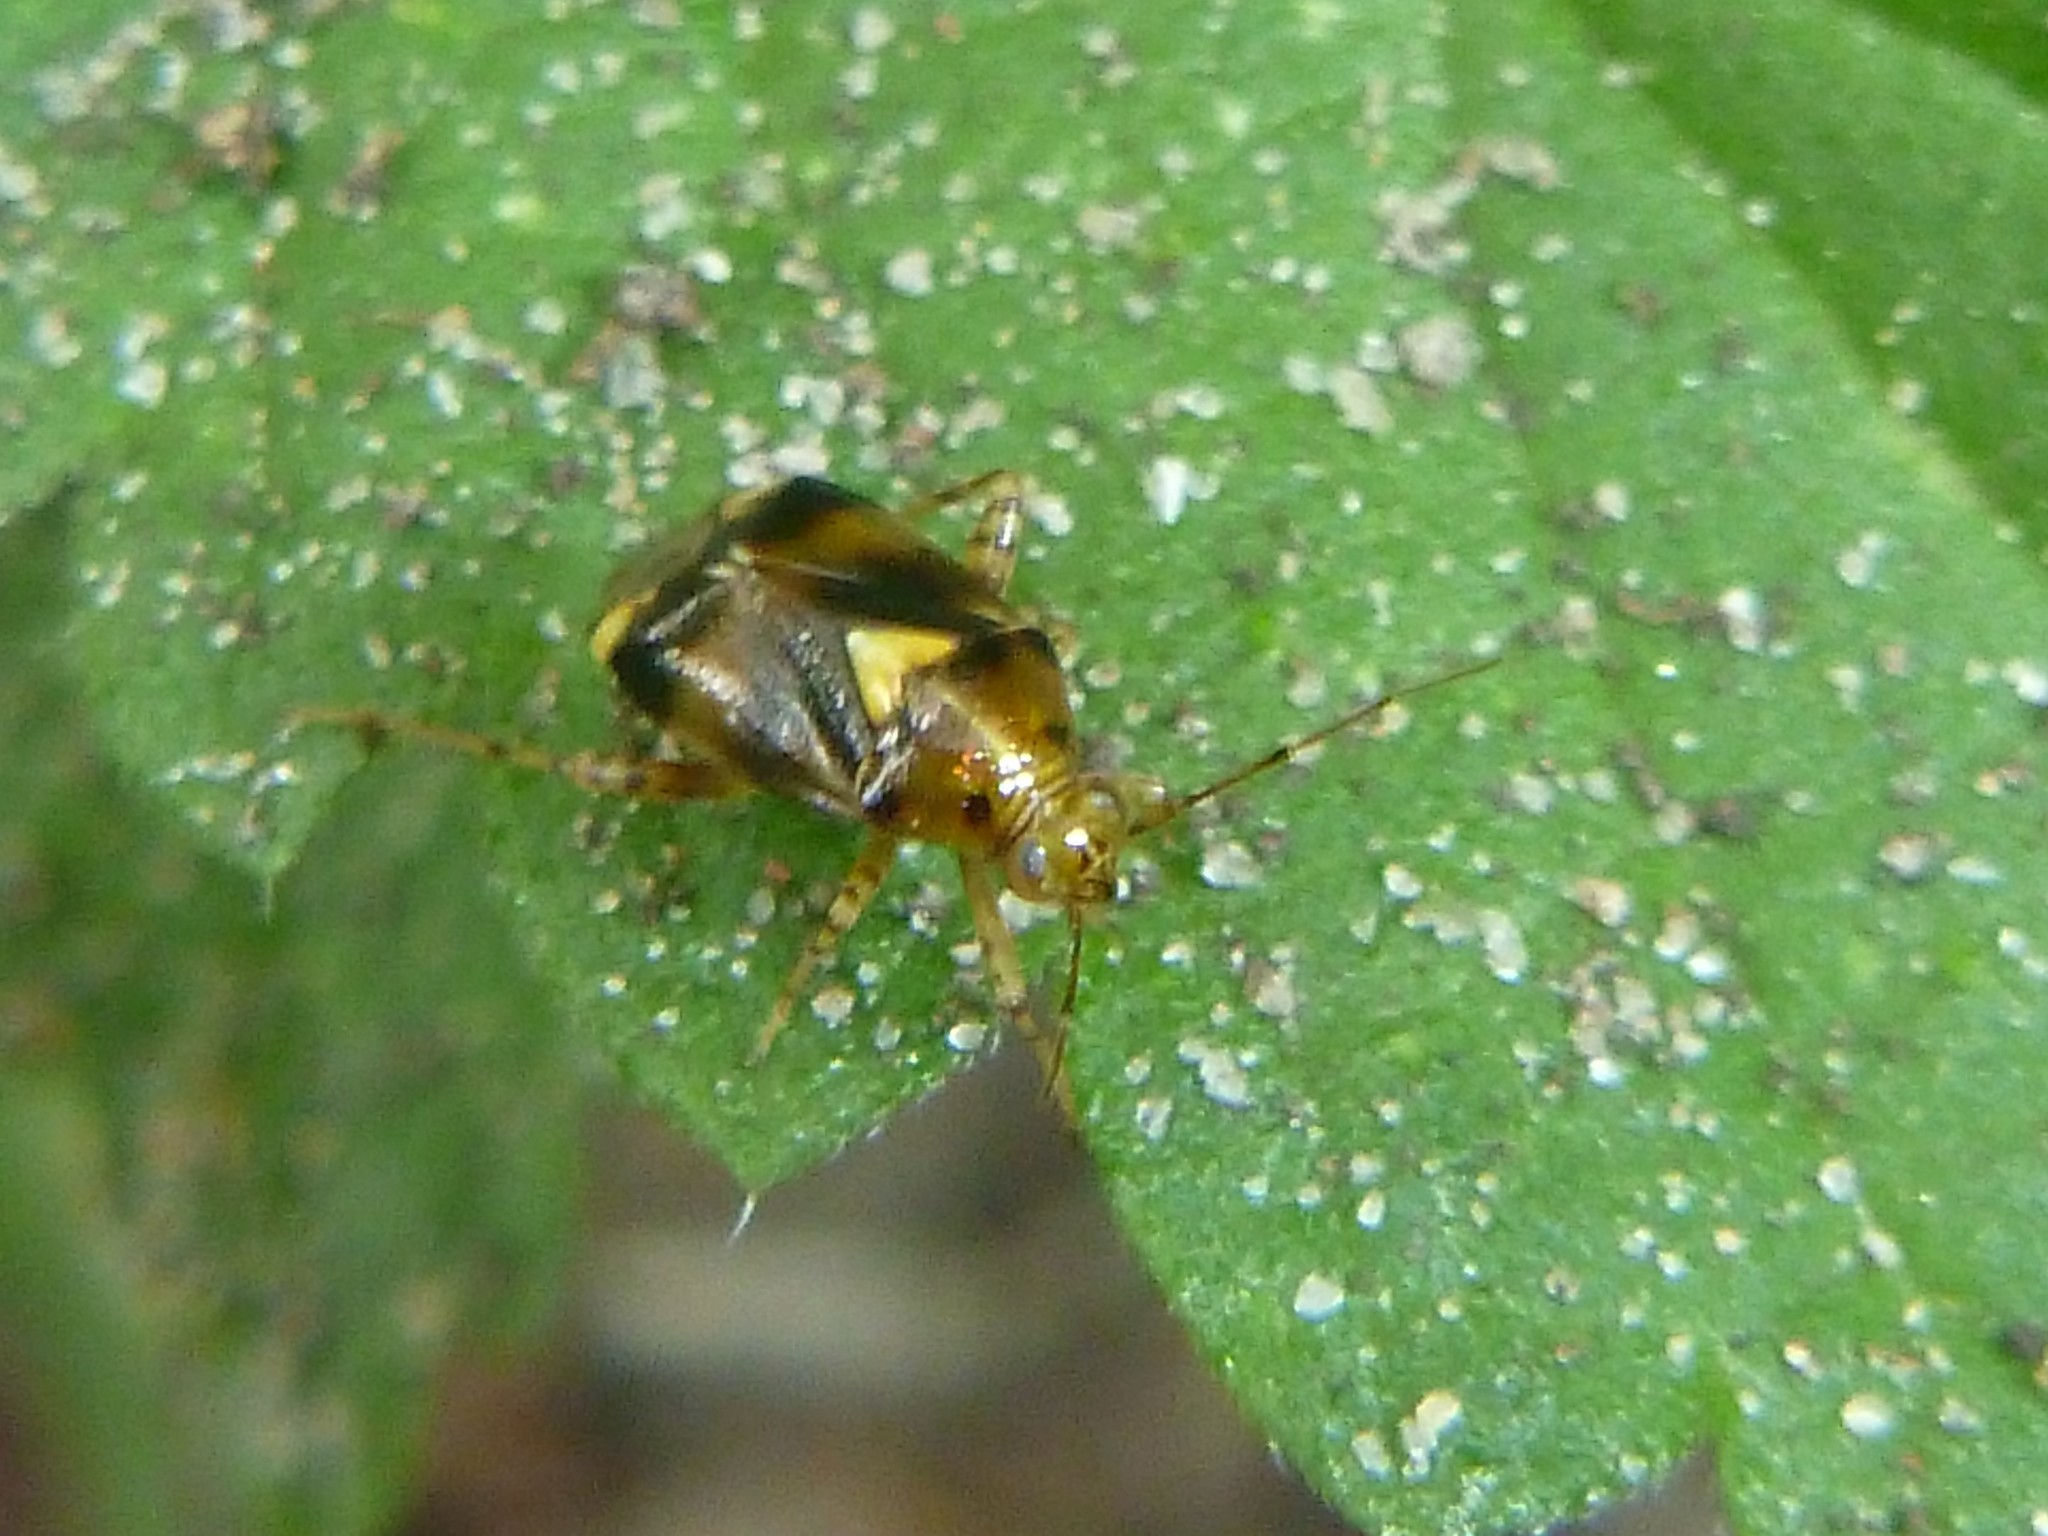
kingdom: Animalia
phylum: Arthropoda
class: Insecta
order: Hemiptera
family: Miridae
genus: Liocoris
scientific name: Liocoris tripustulatus
